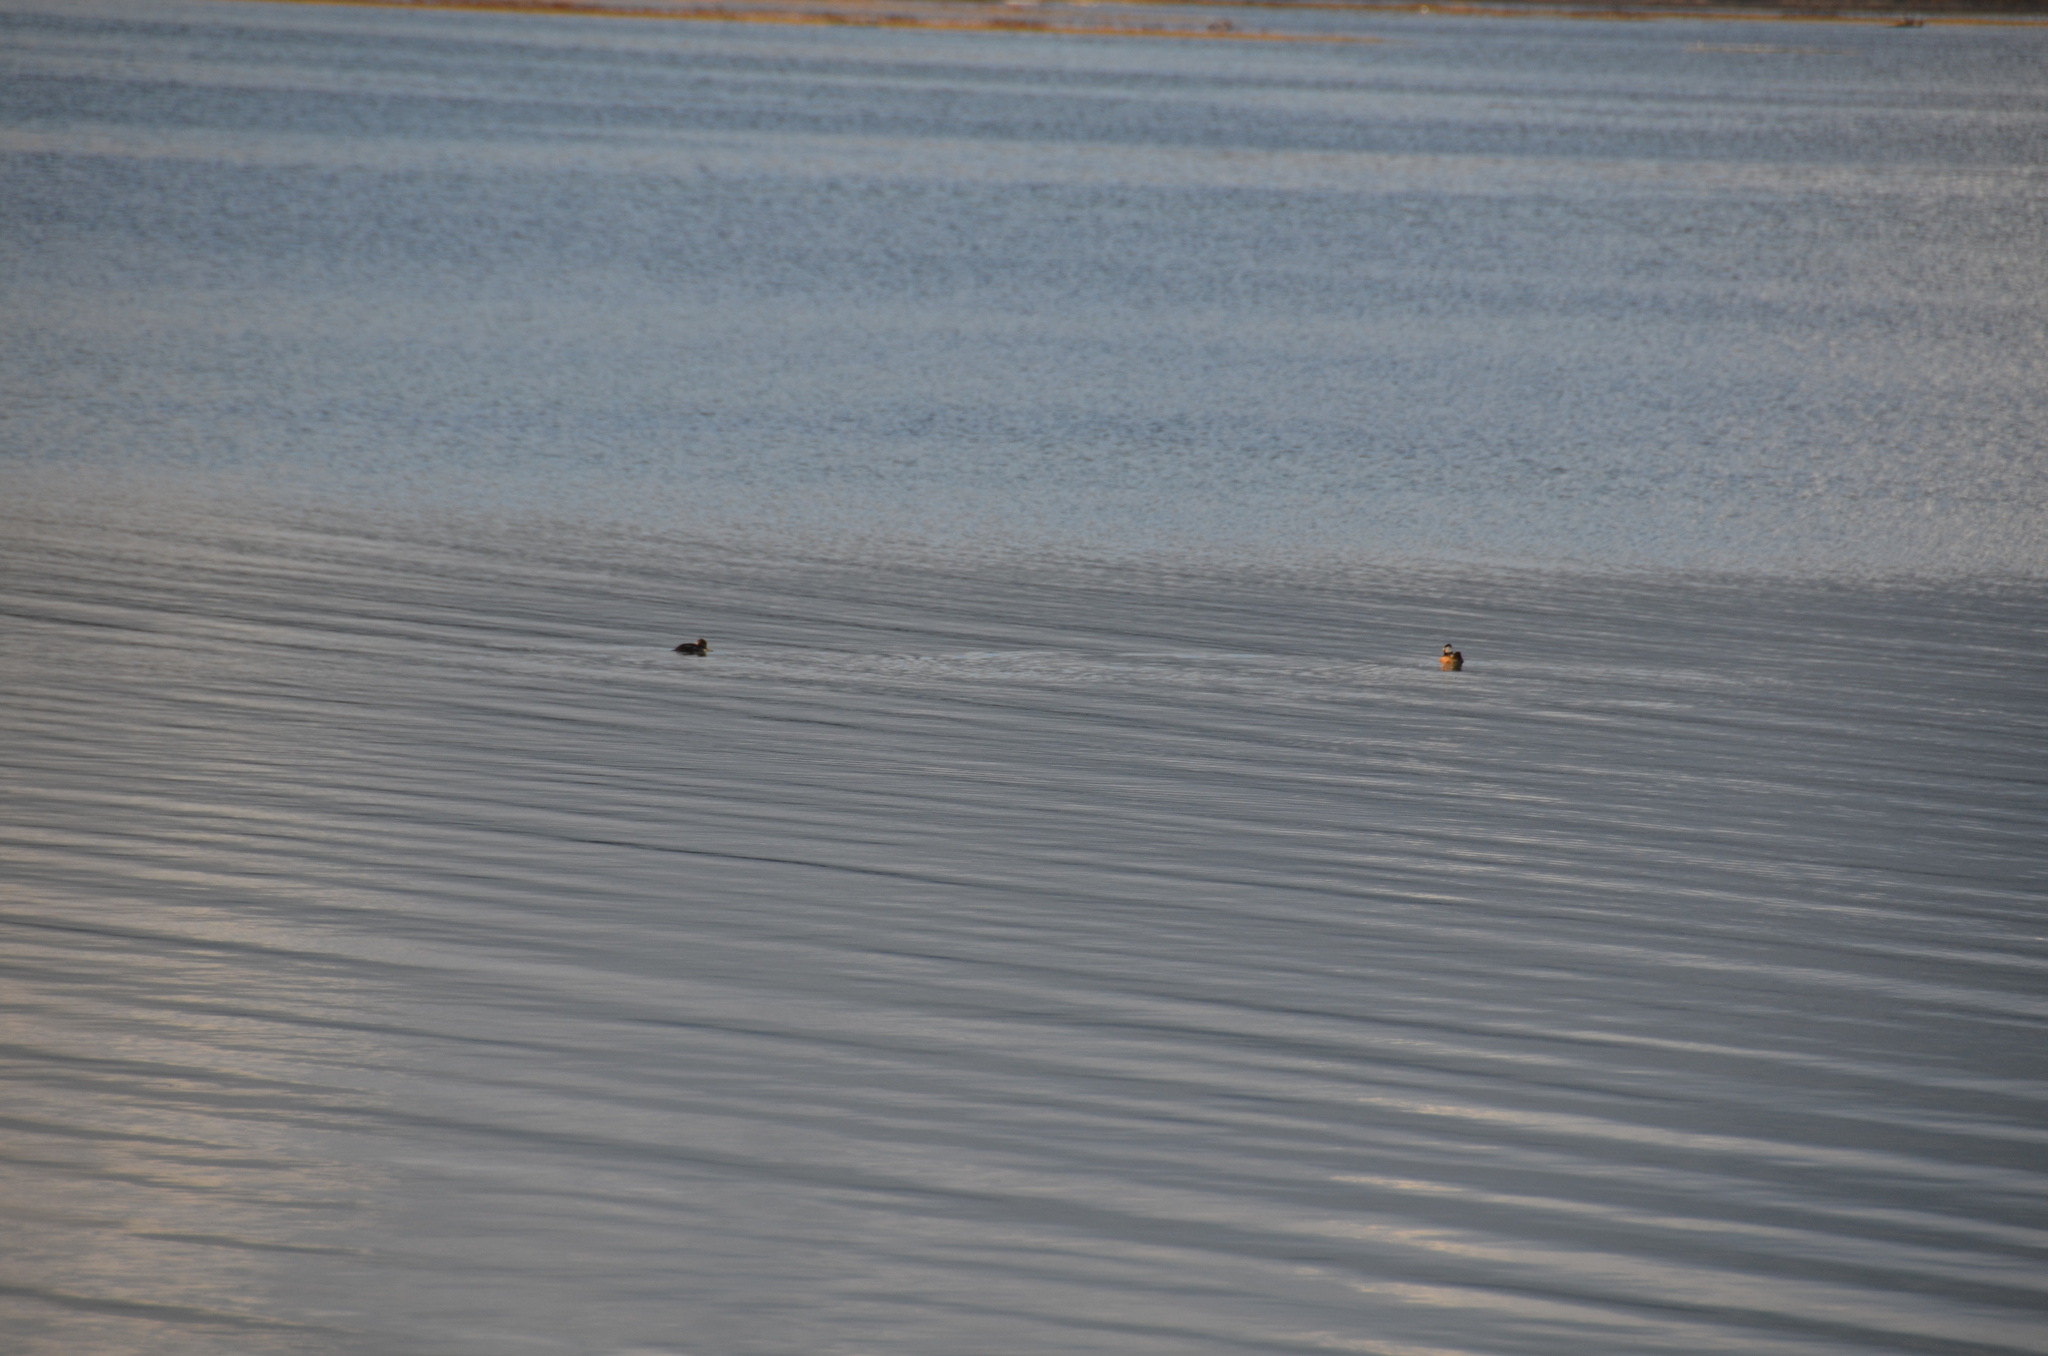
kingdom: Animalia
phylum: Chordata
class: Aves
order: Anseriformes
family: Anatidae
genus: Lophodytes
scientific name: Lophodytes cucullatus
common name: Hooded merganser
